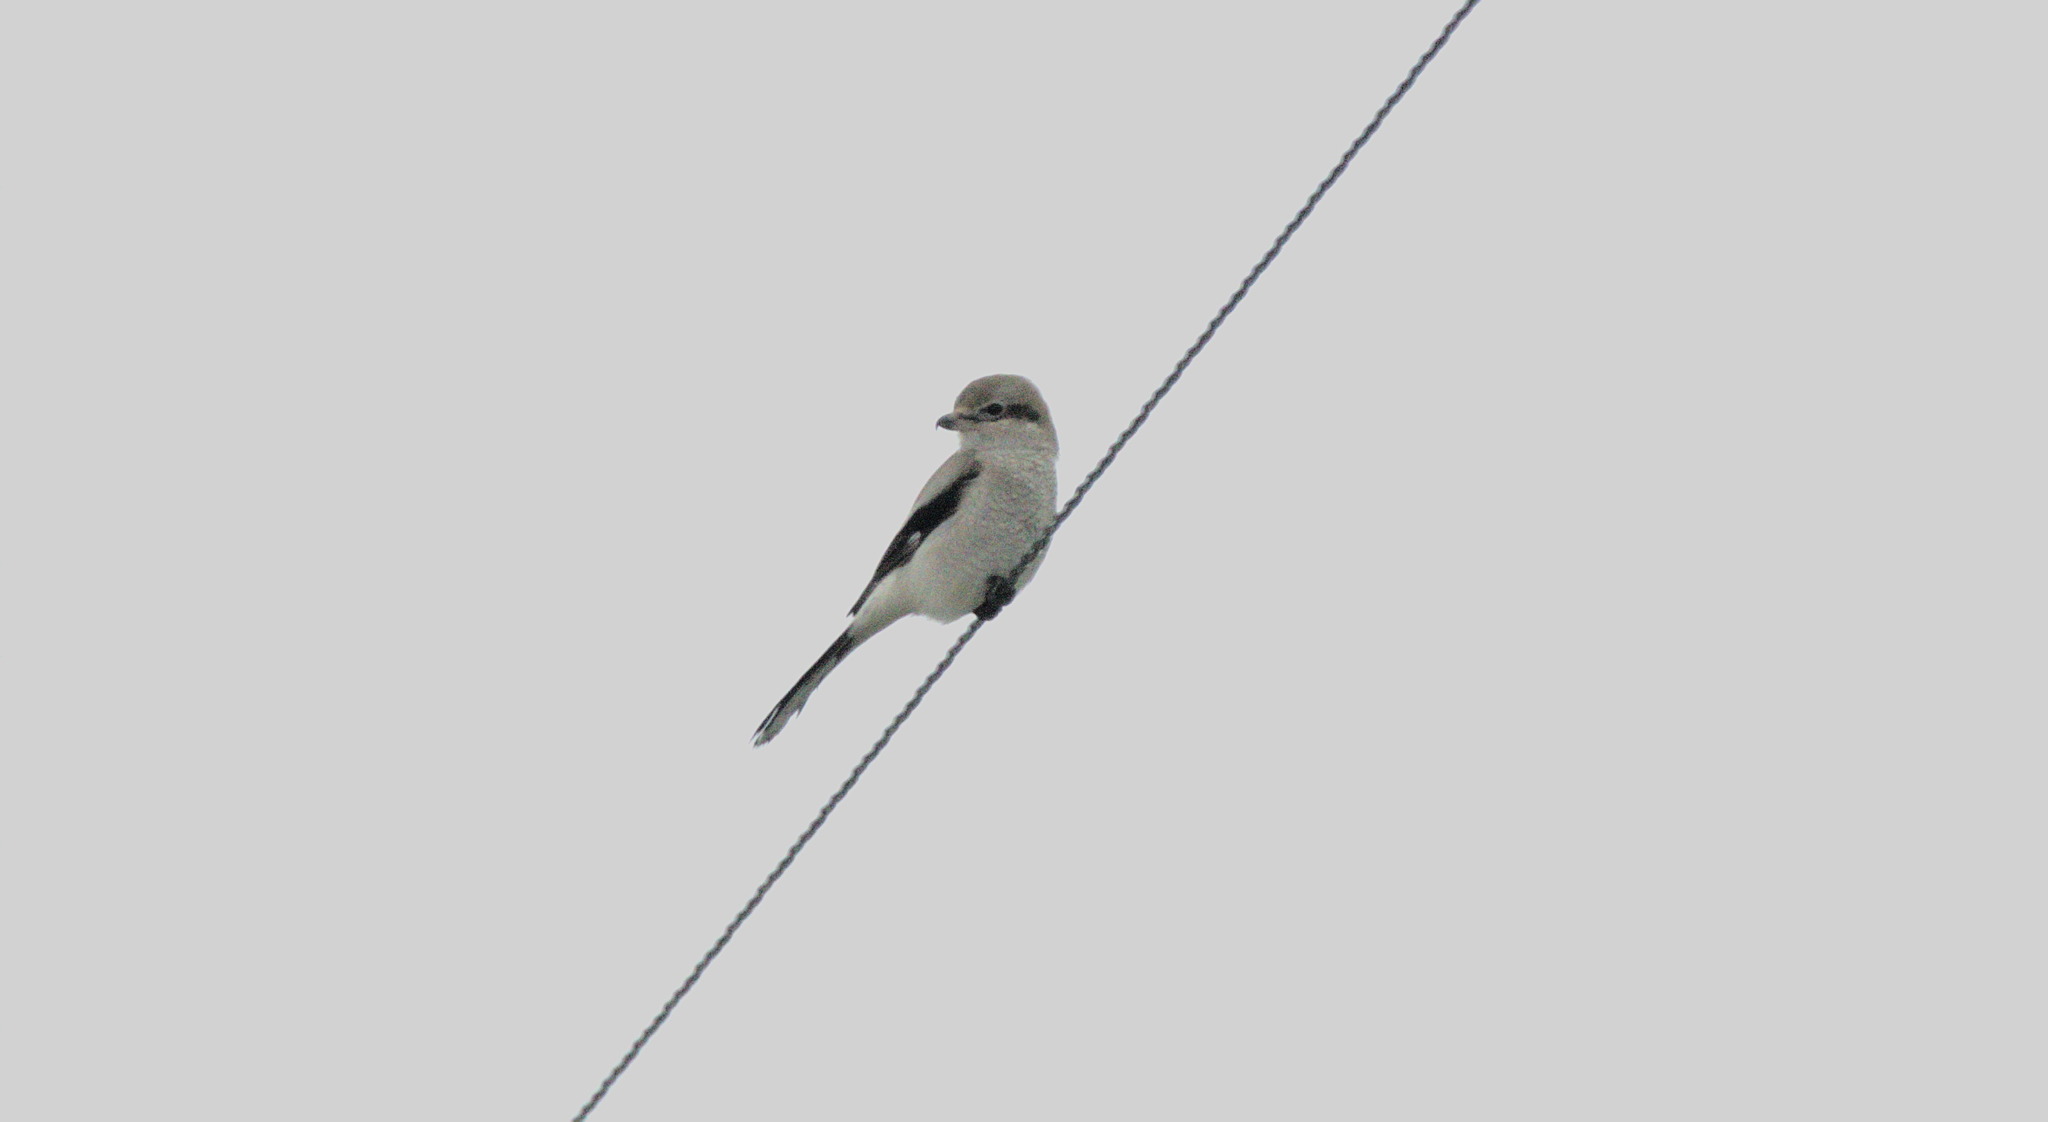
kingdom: Animalia
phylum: Chordata
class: Aves
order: Passeriformes
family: Laniidae
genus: Lanius
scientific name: Lanius borealis
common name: Northern shrike
